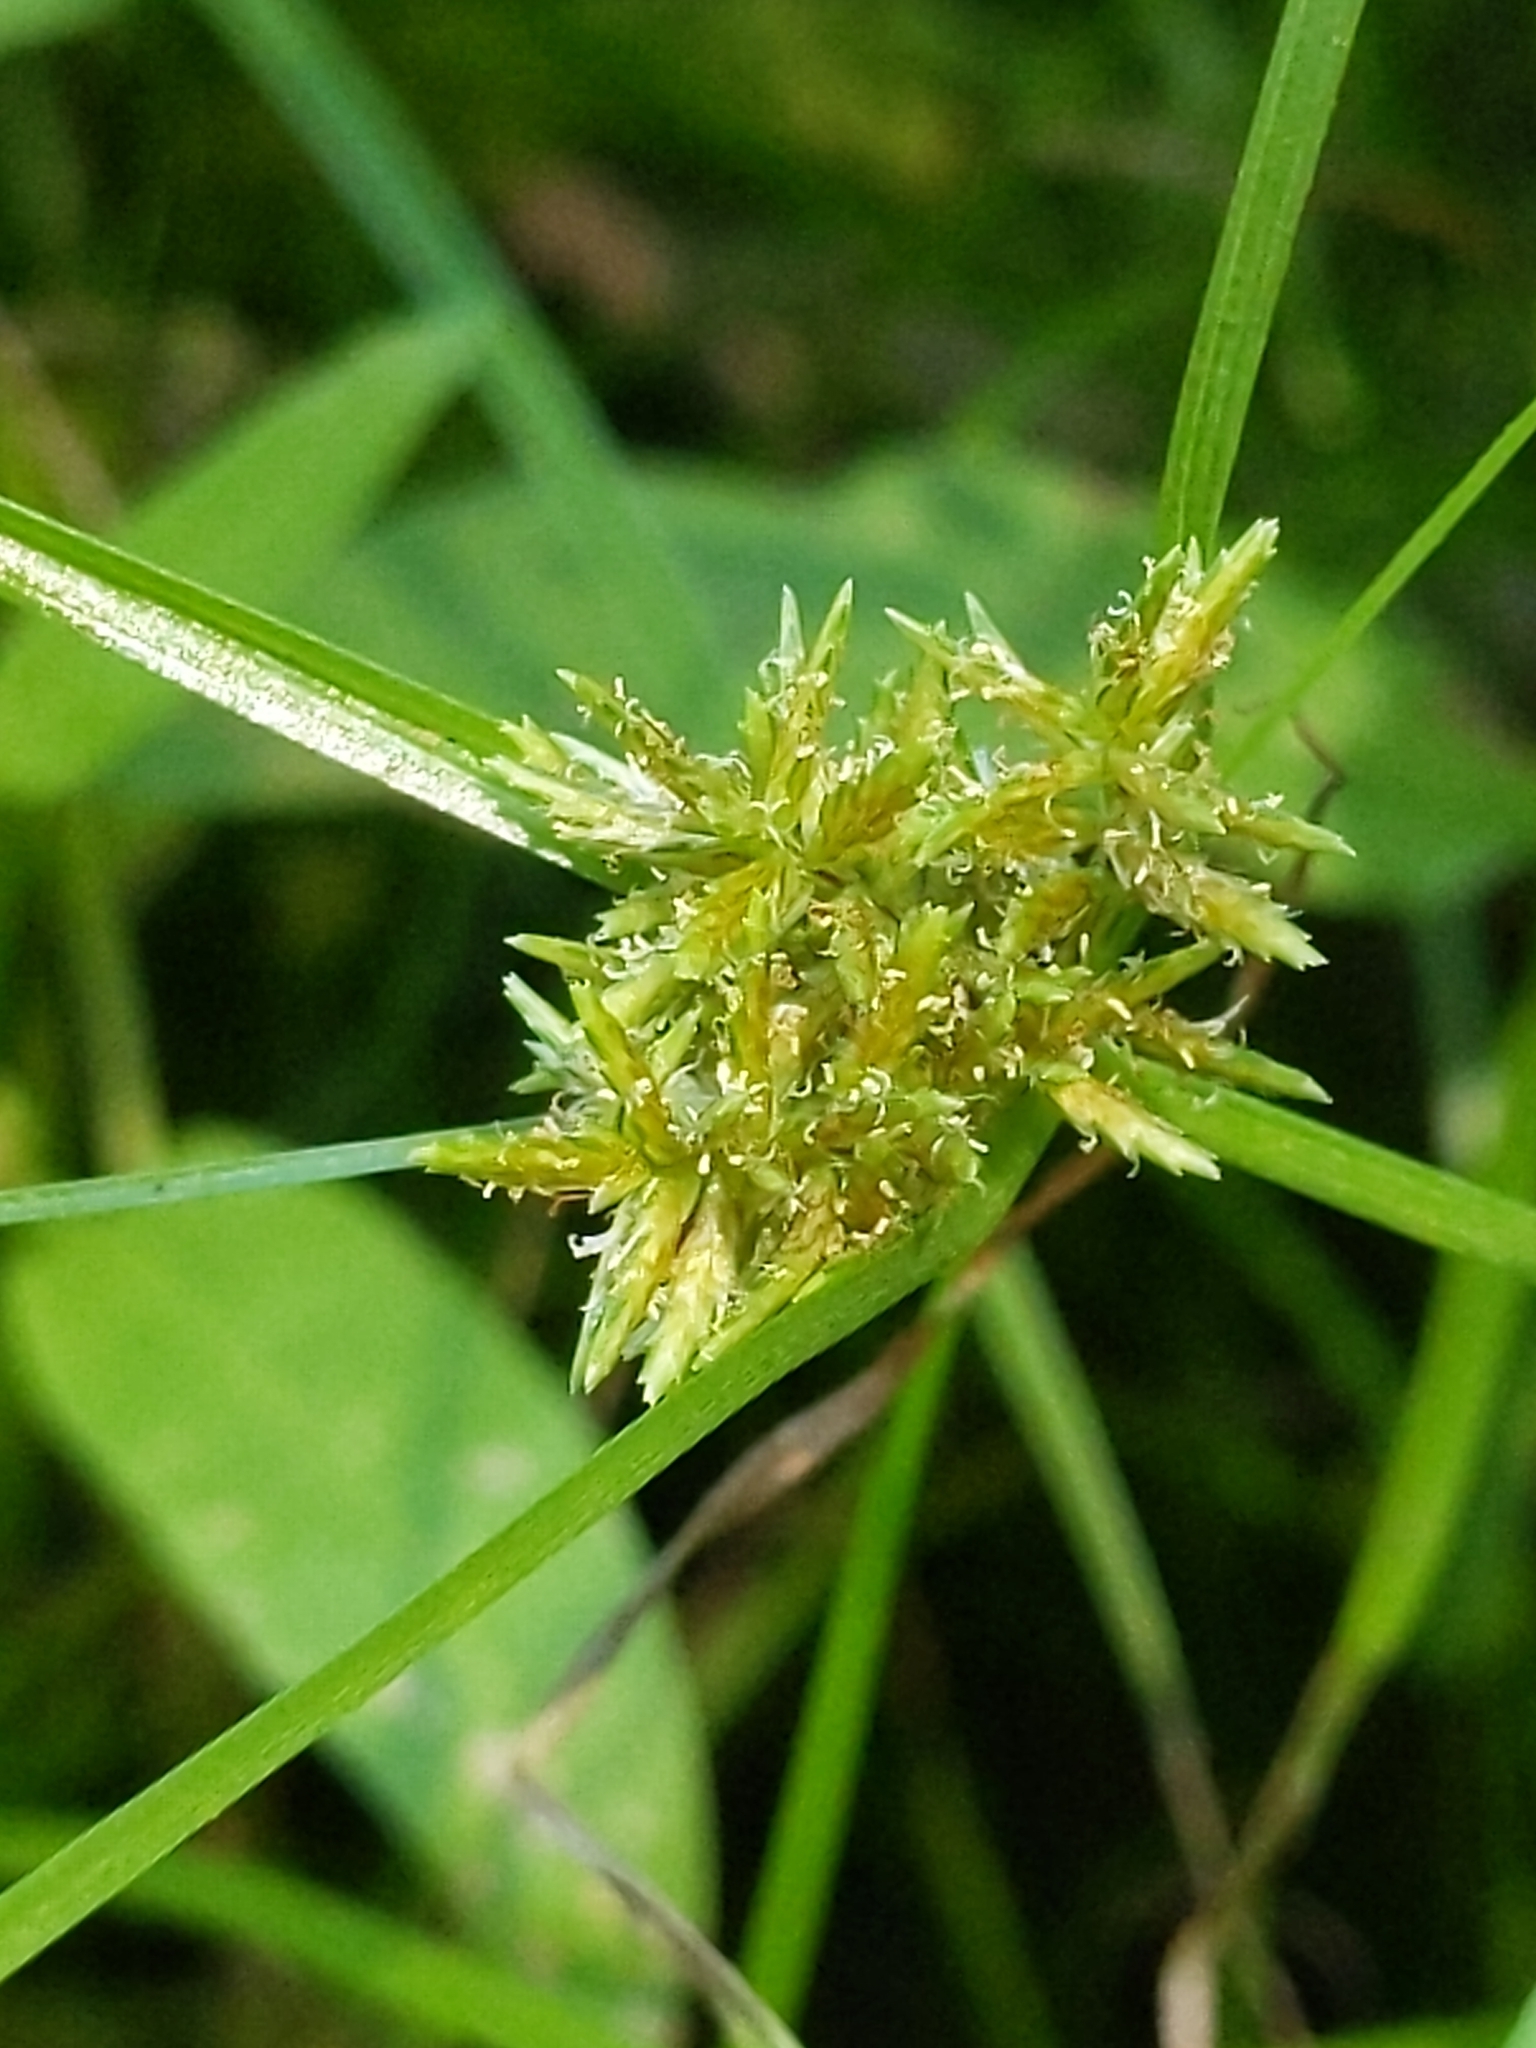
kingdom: Plantae
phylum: Tracheophyta
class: Liliopsida
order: Poales
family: Cyperaceae
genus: Cyperus
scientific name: Cyperus erythrorhizos
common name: Red-root flat sedge
